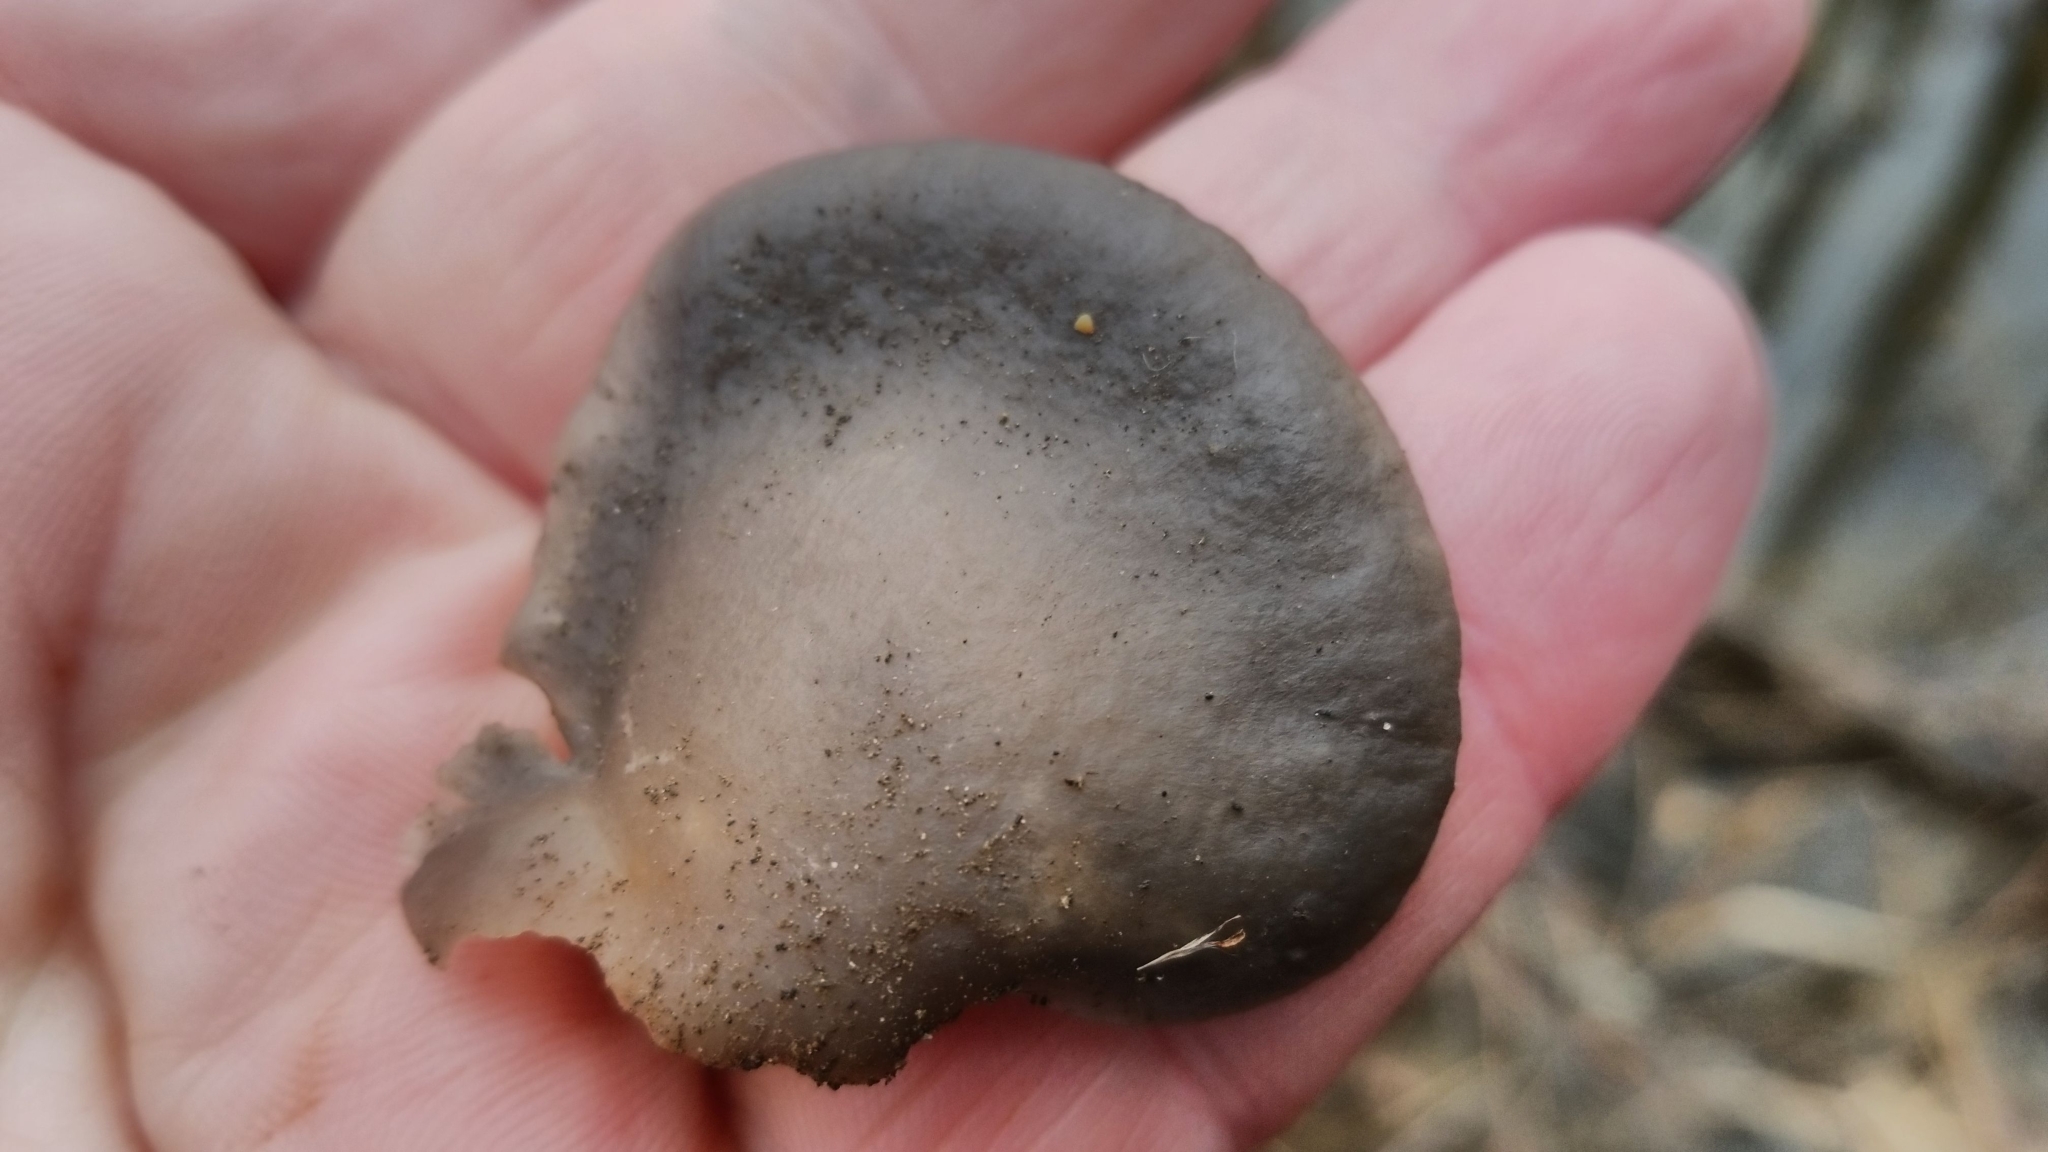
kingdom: Fungi
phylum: Basidiomycota
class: Agaricomycetes
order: Agaricales
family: Sarcomyxaceae
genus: Sarcomyxa
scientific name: Sarcomyxa serotina
